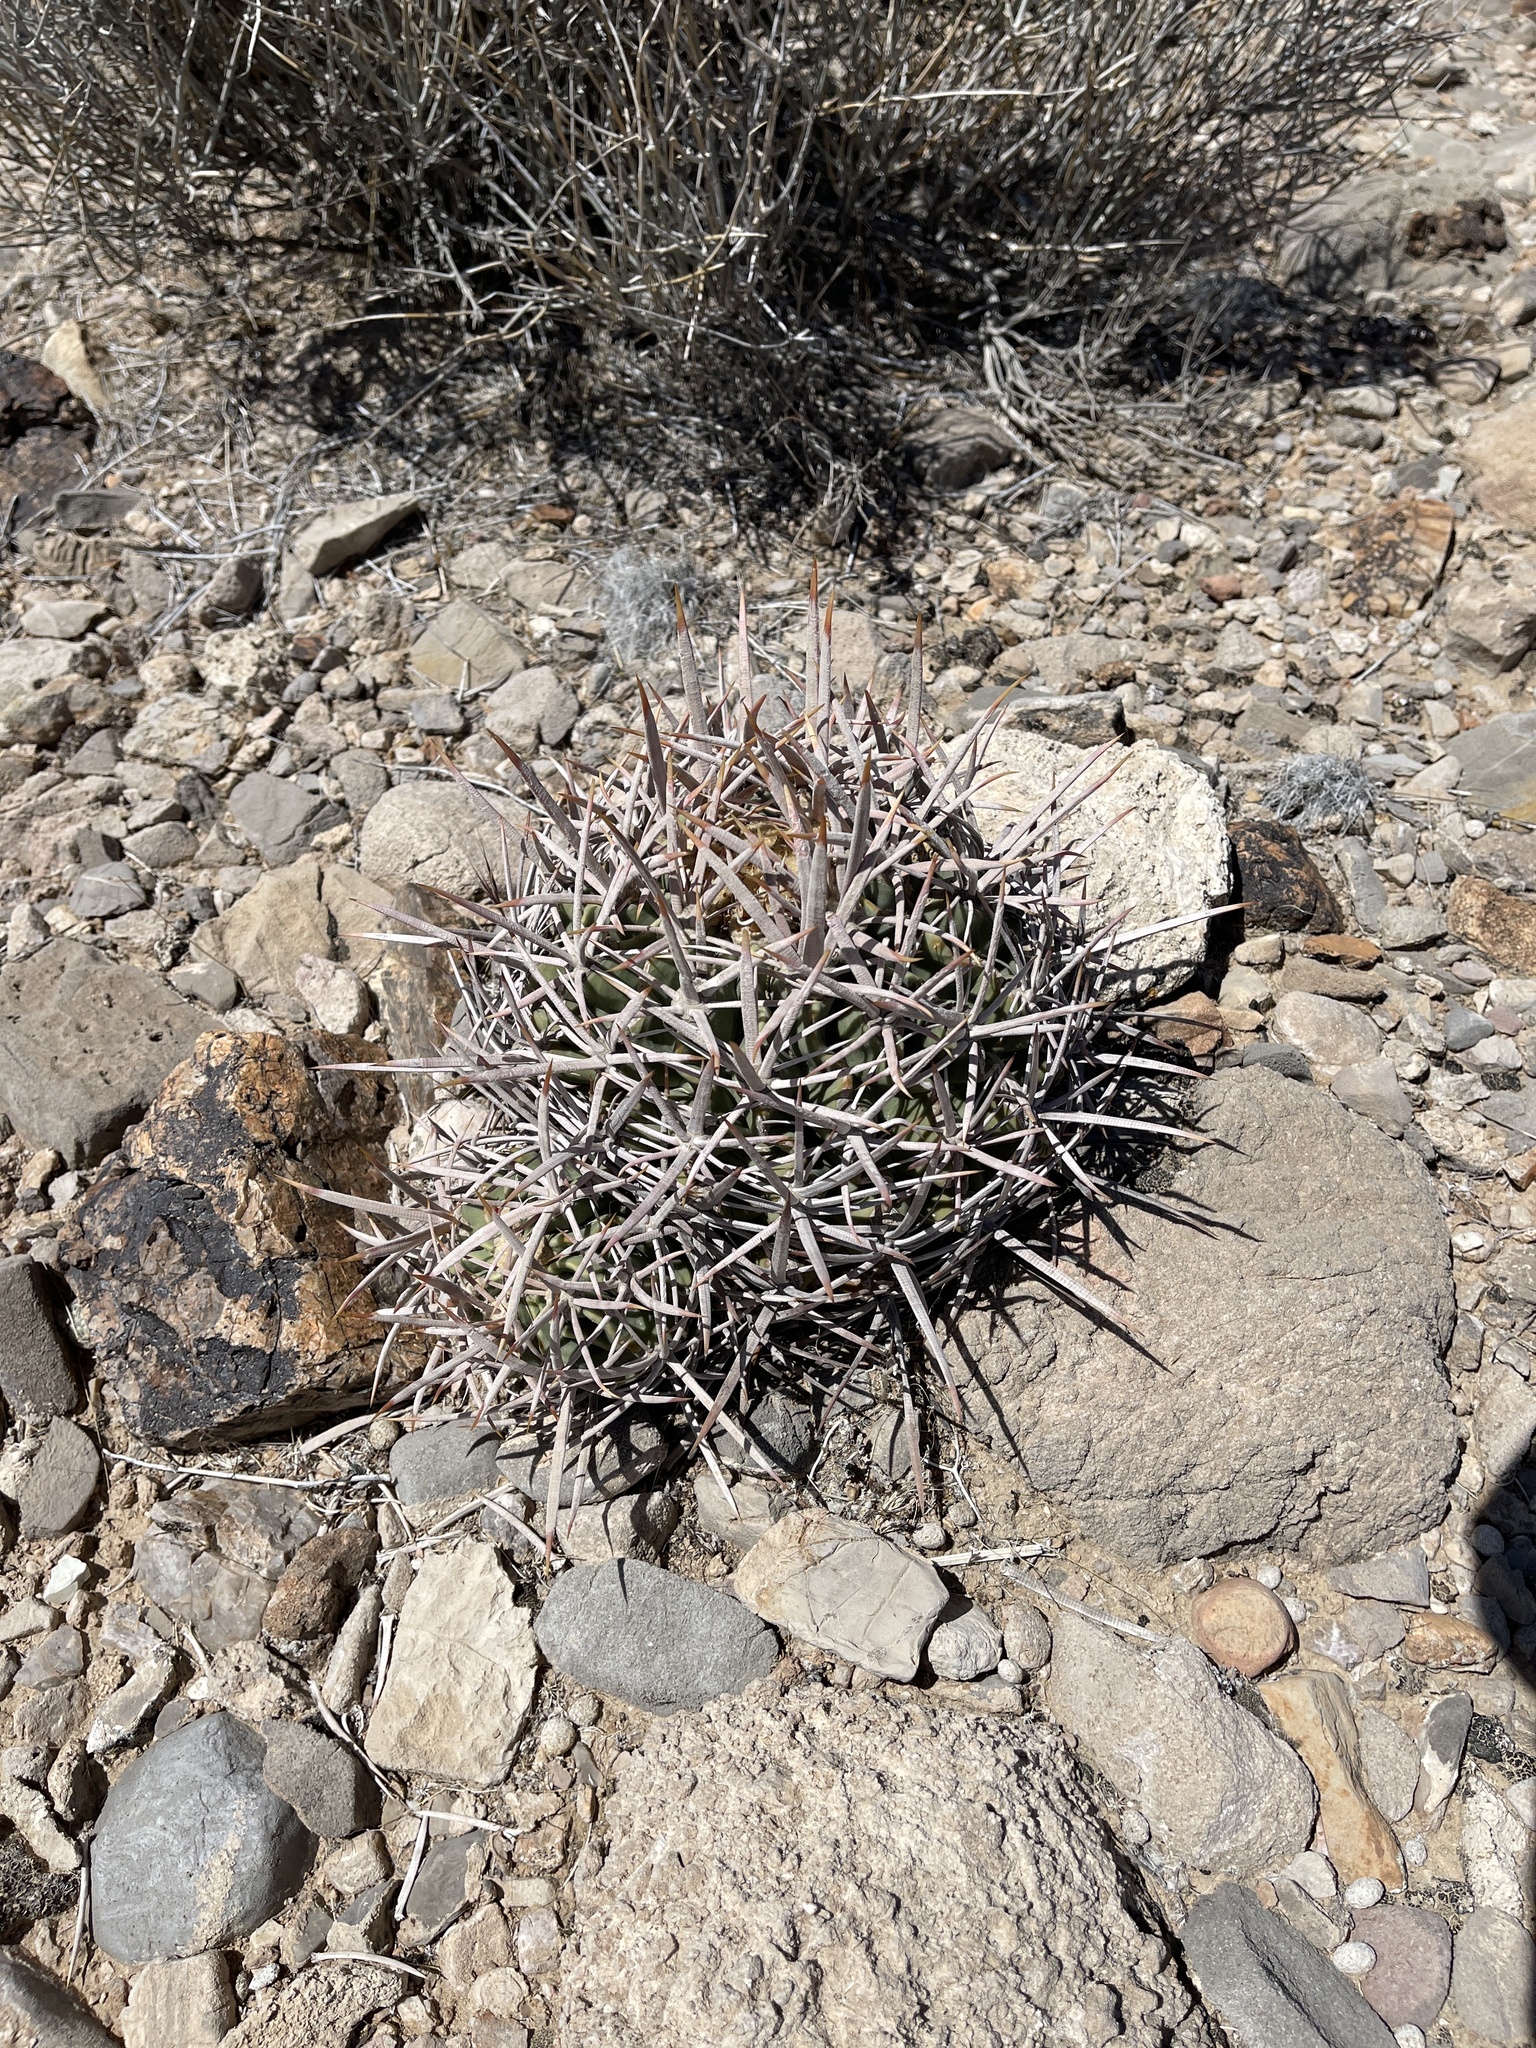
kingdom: Plantae
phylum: Tracheophyta
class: Magnoliopsida
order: Caryophyllales
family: Cactaceae
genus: Echinocactus
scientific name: Echinocactus polycephalus
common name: Cottontop cactus
